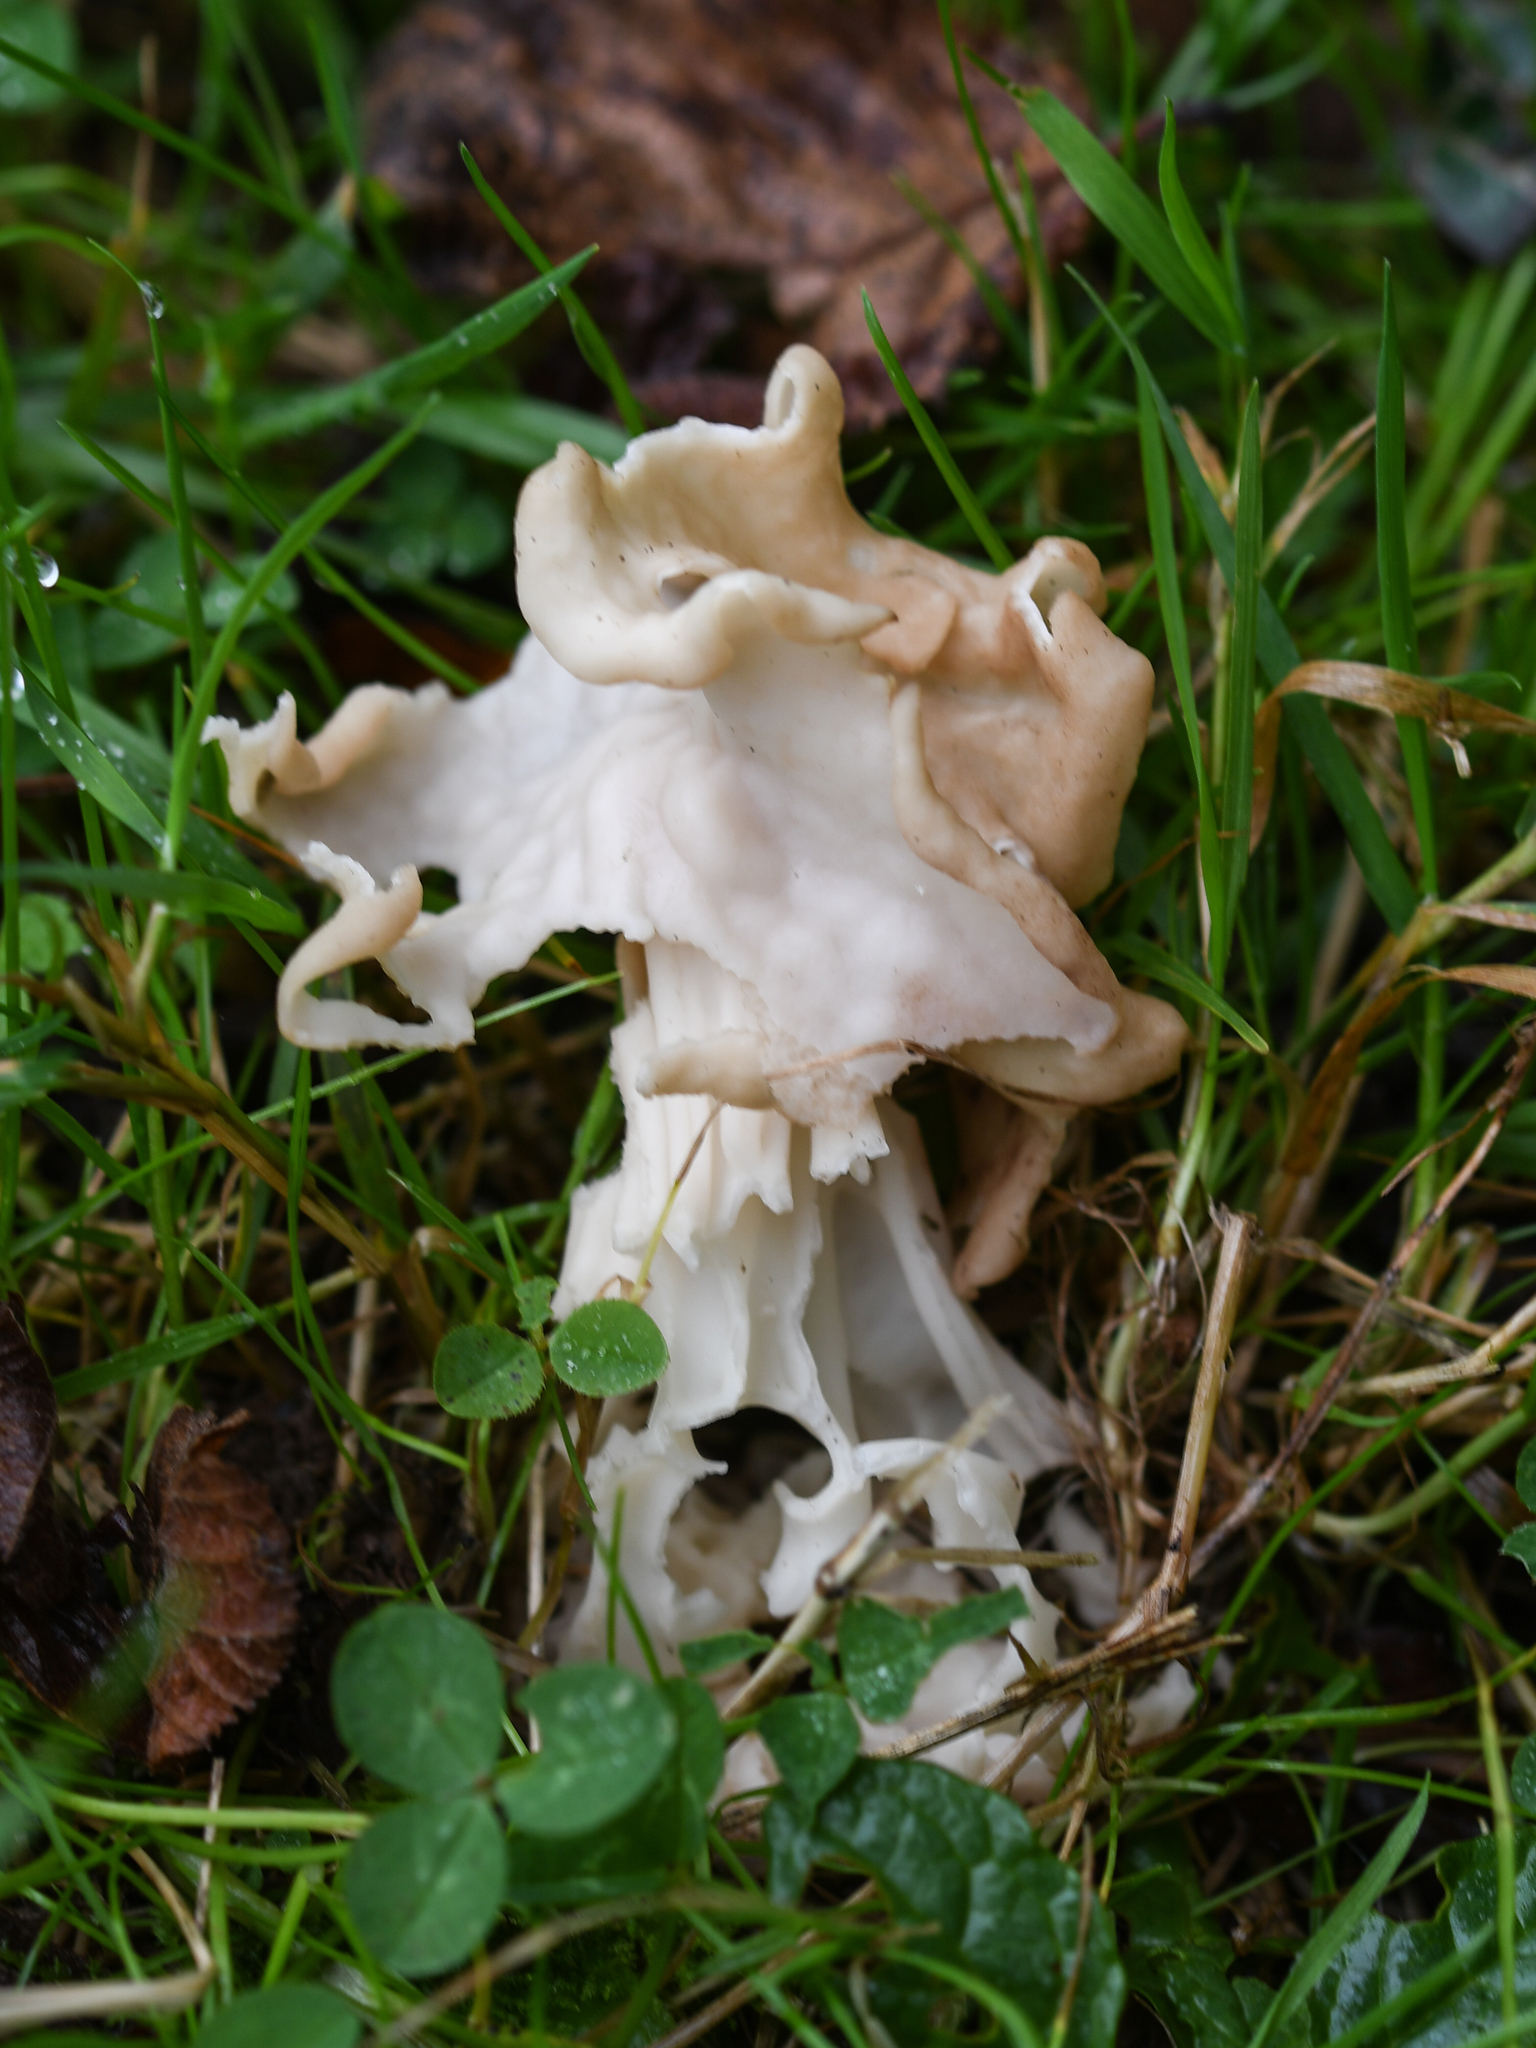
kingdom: Fungi
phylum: Ascomycota
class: Pezizomycetes
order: Pezizales
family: Helvellaceae
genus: Helvella
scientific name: Helvella crispa
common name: White saddle
